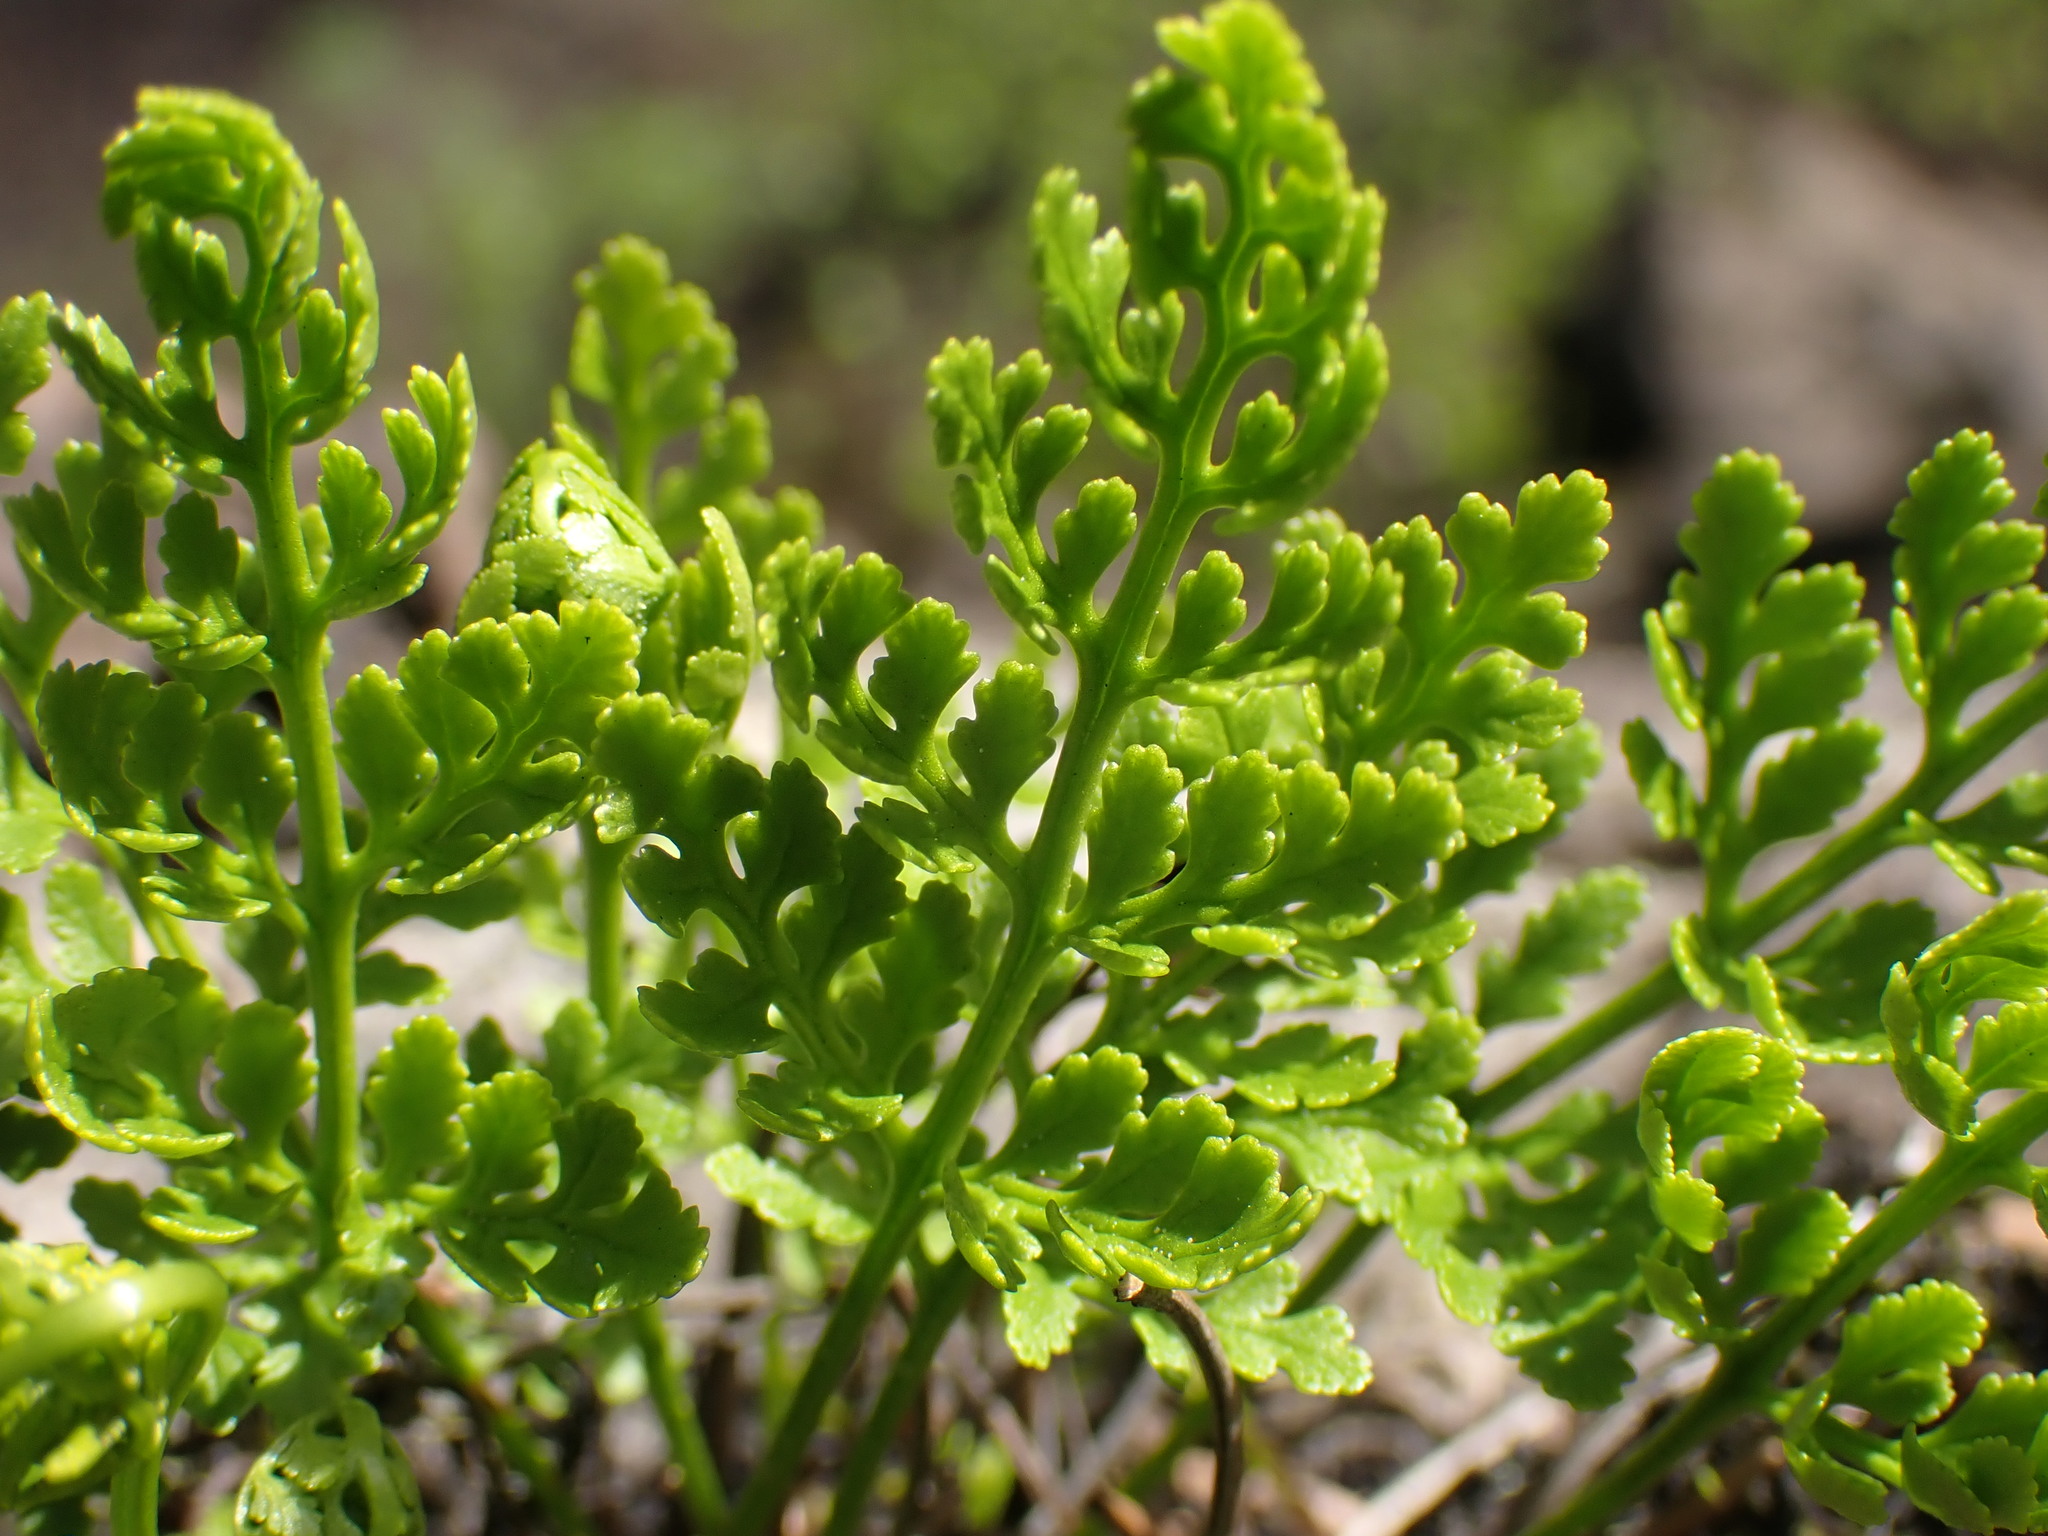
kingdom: Plantae
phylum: Tracheophyta
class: Polypodiopsida
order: Polypodiales
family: Pteridaceae
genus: Cryptogramma
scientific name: Cryptogramma acrostichoides
